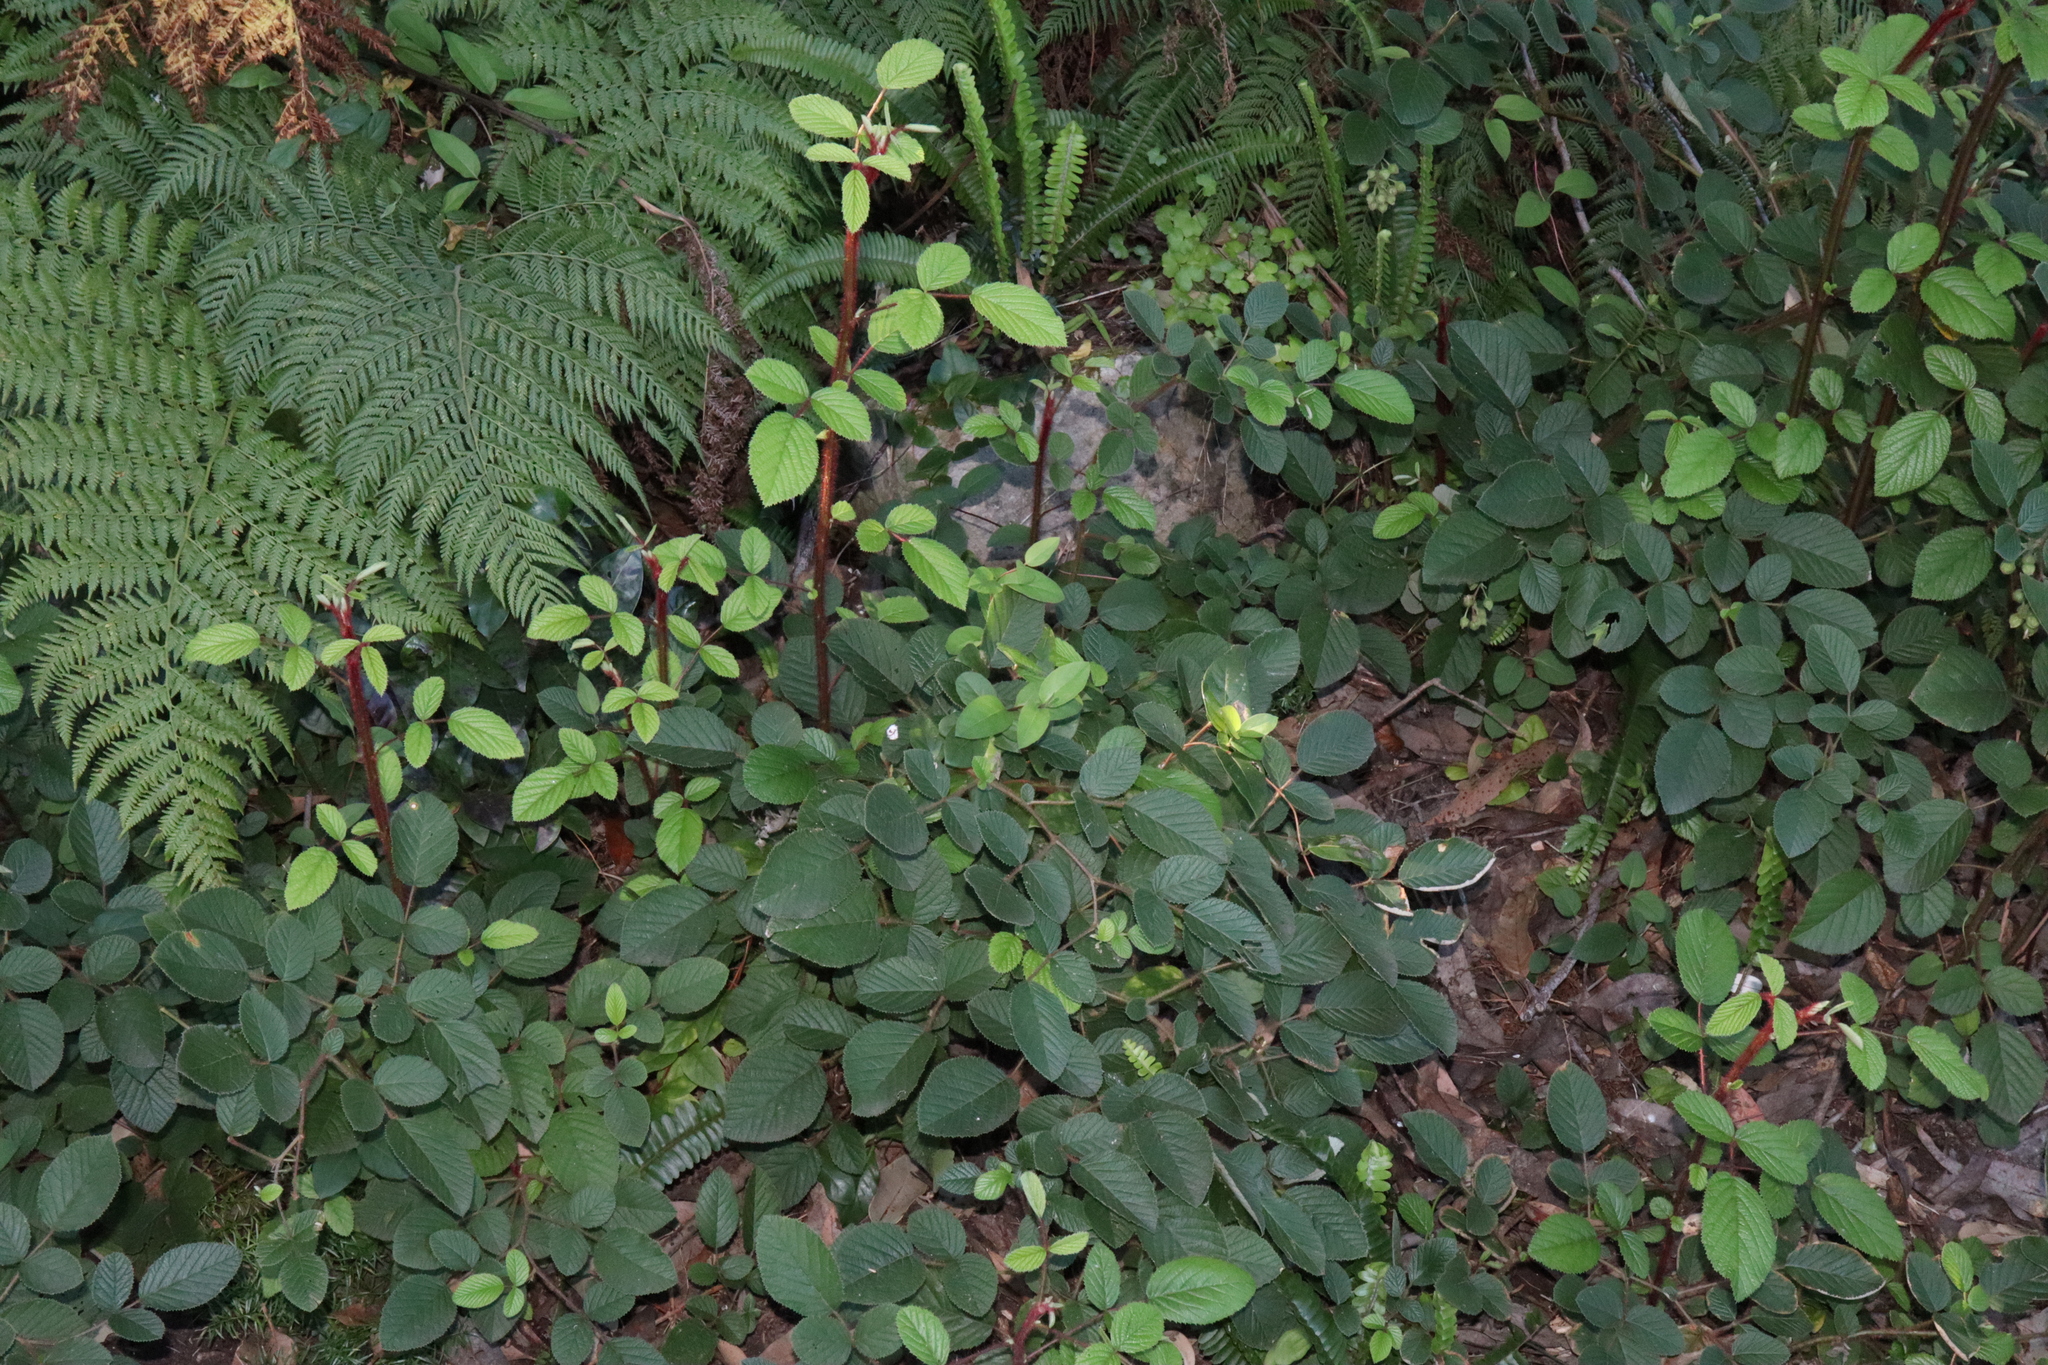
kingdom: Plantae
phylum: Tracheophyta
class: Magnoliopsida
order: Rosales
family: Rosaceae
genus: Rubus
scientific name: Rubus ellipticus
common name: Cheeseberry
